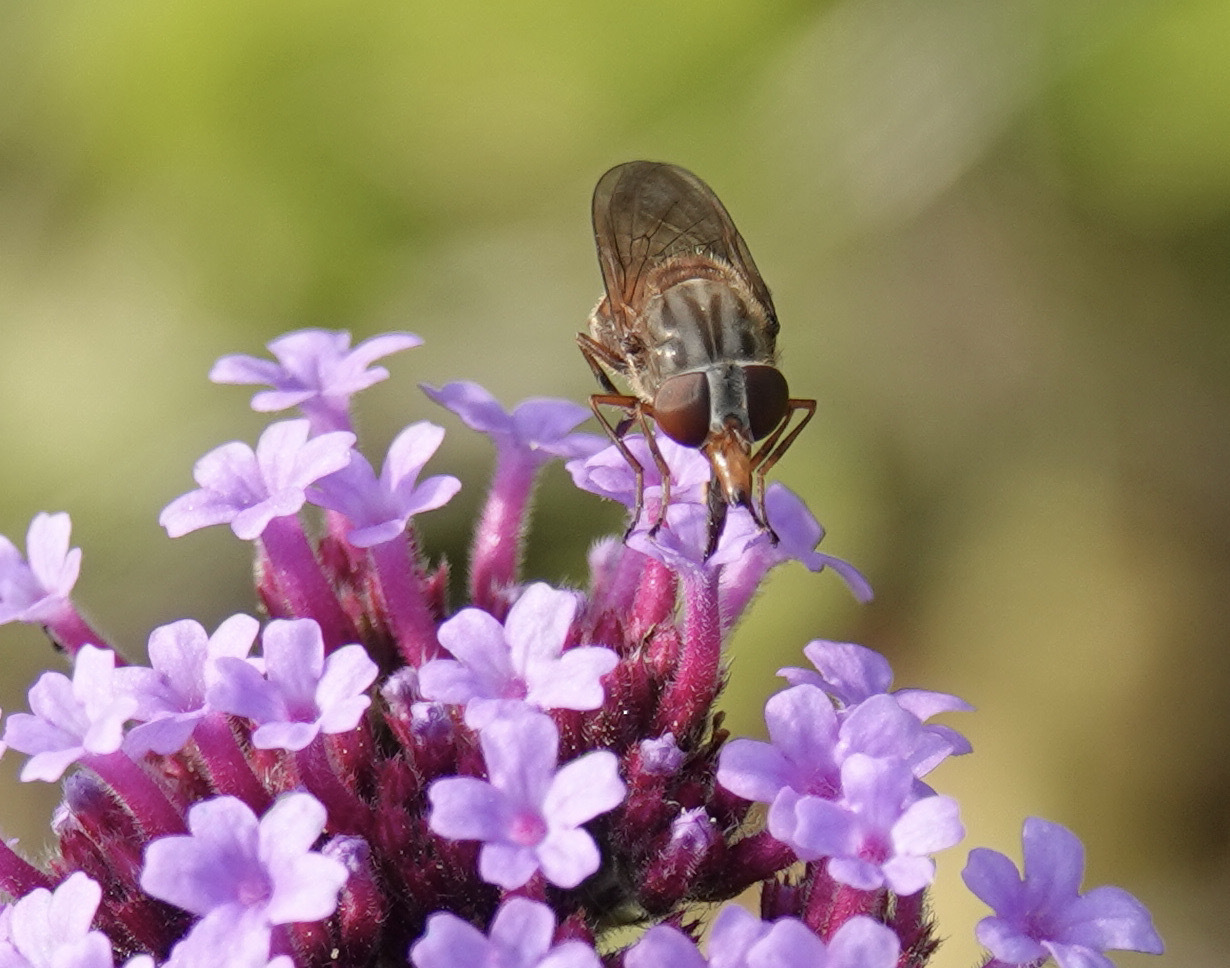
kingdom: Animalia
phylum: Arthropoda
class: Insecta
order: Diptera
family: Syrphidae
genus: Rhingia
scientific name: Rhingia campestris
